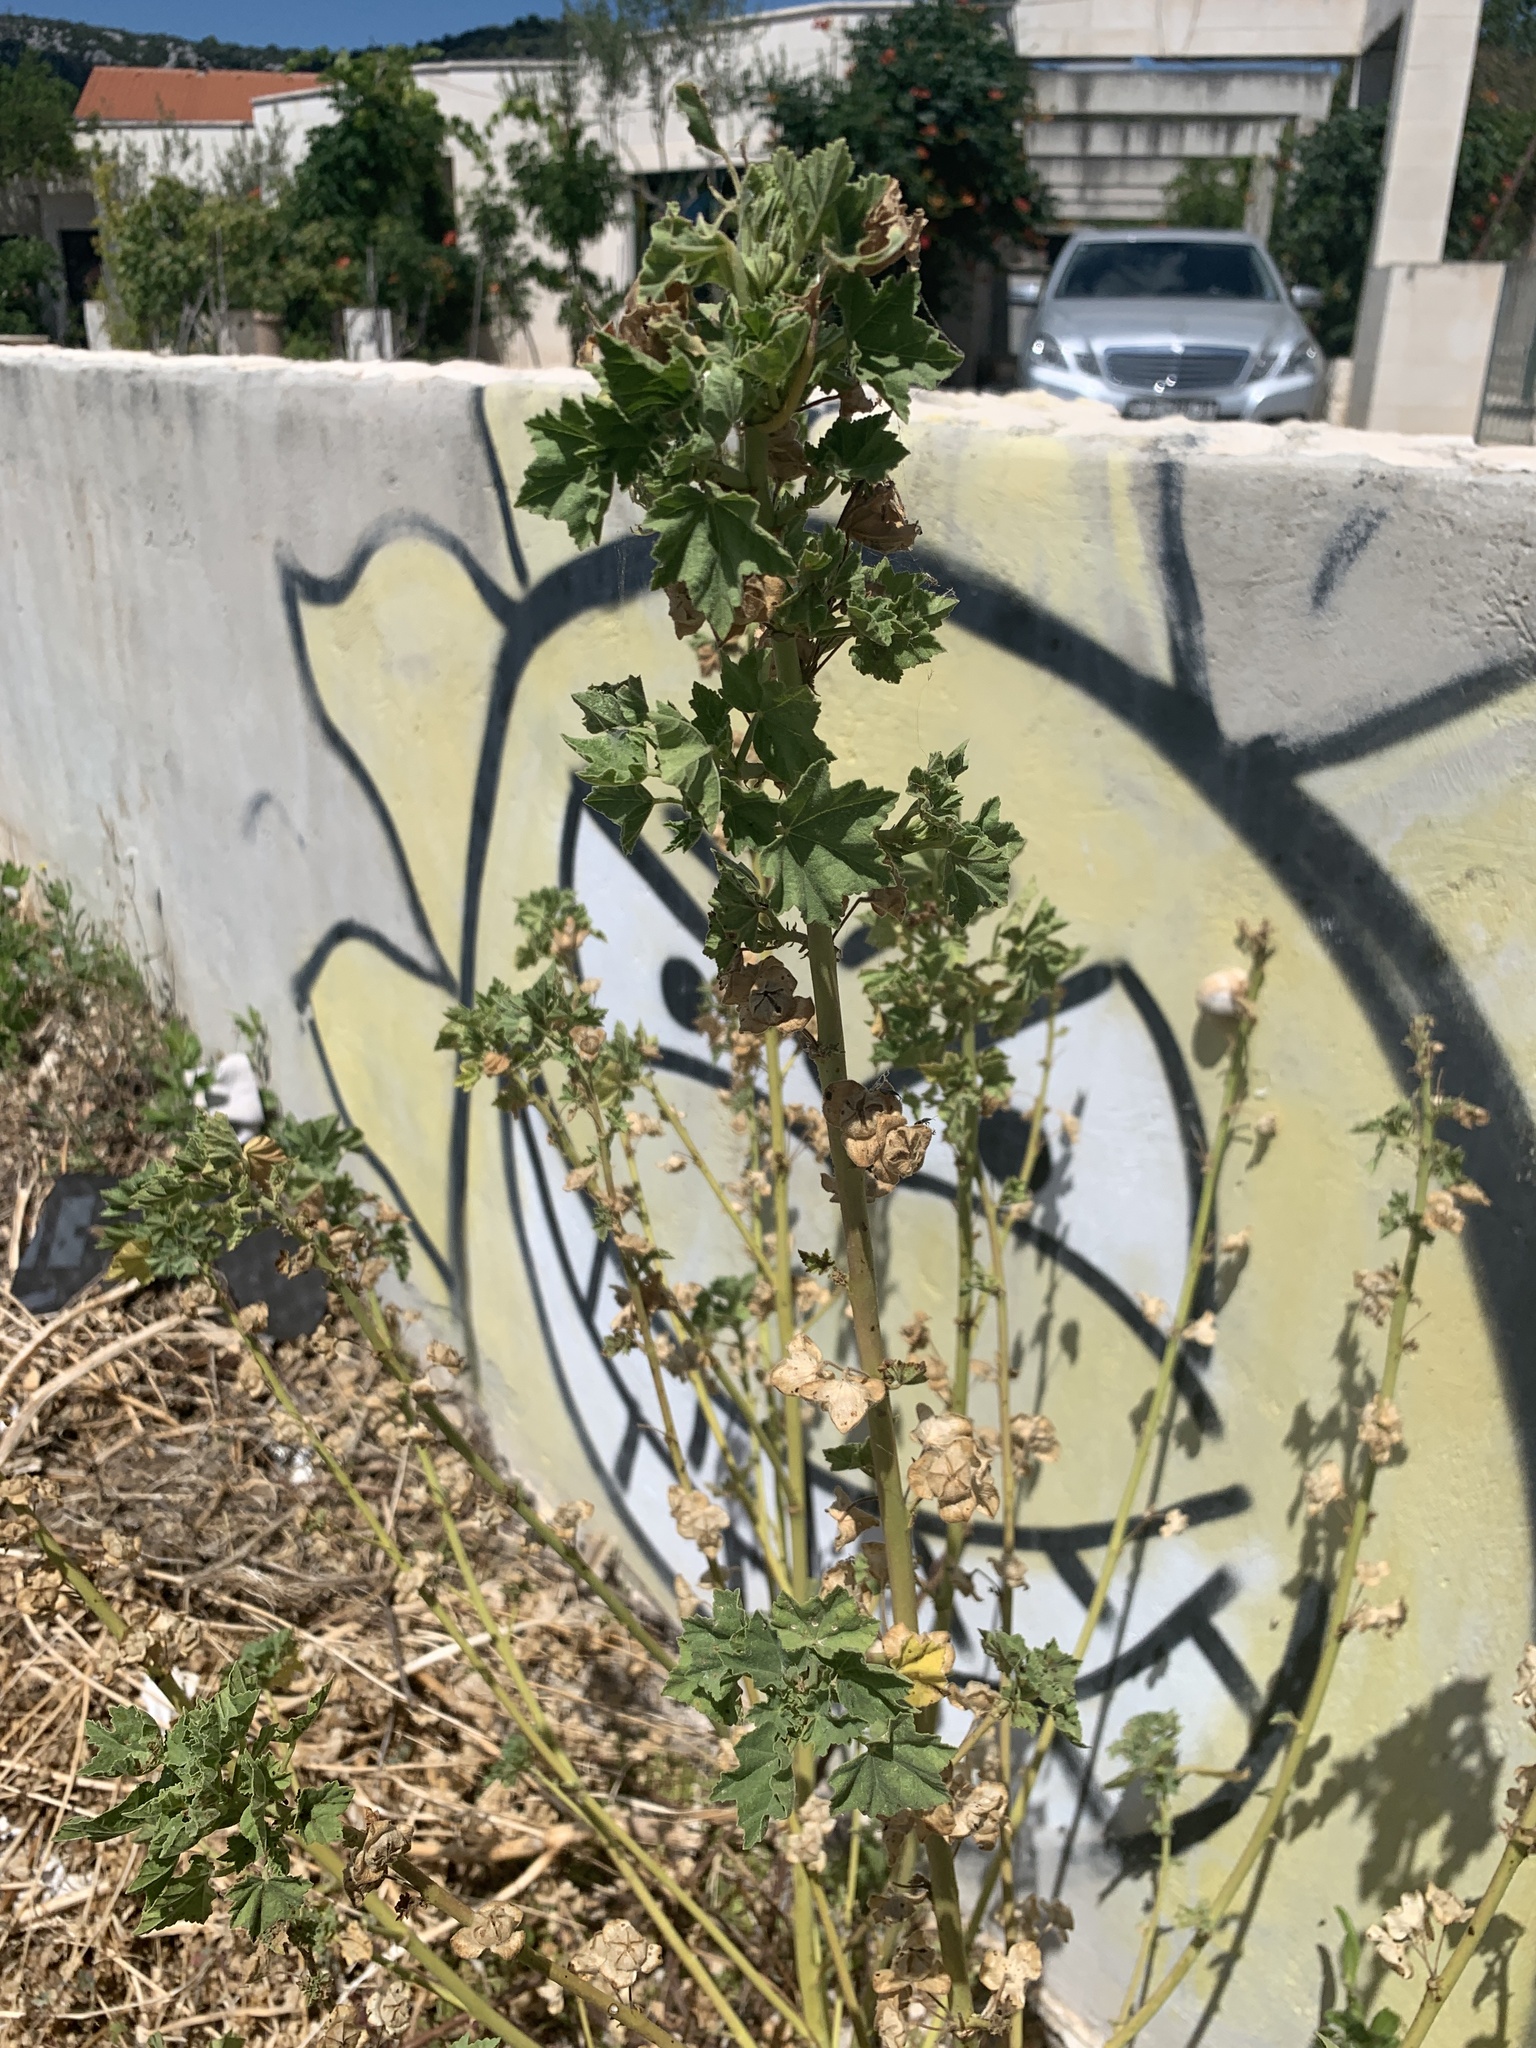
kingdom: Plantae
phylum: Tracheophyta
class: Magnoliopsida
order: Malvales
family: Malvaceae
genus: Malva
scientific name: Malva arborea
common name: Tree mallow
